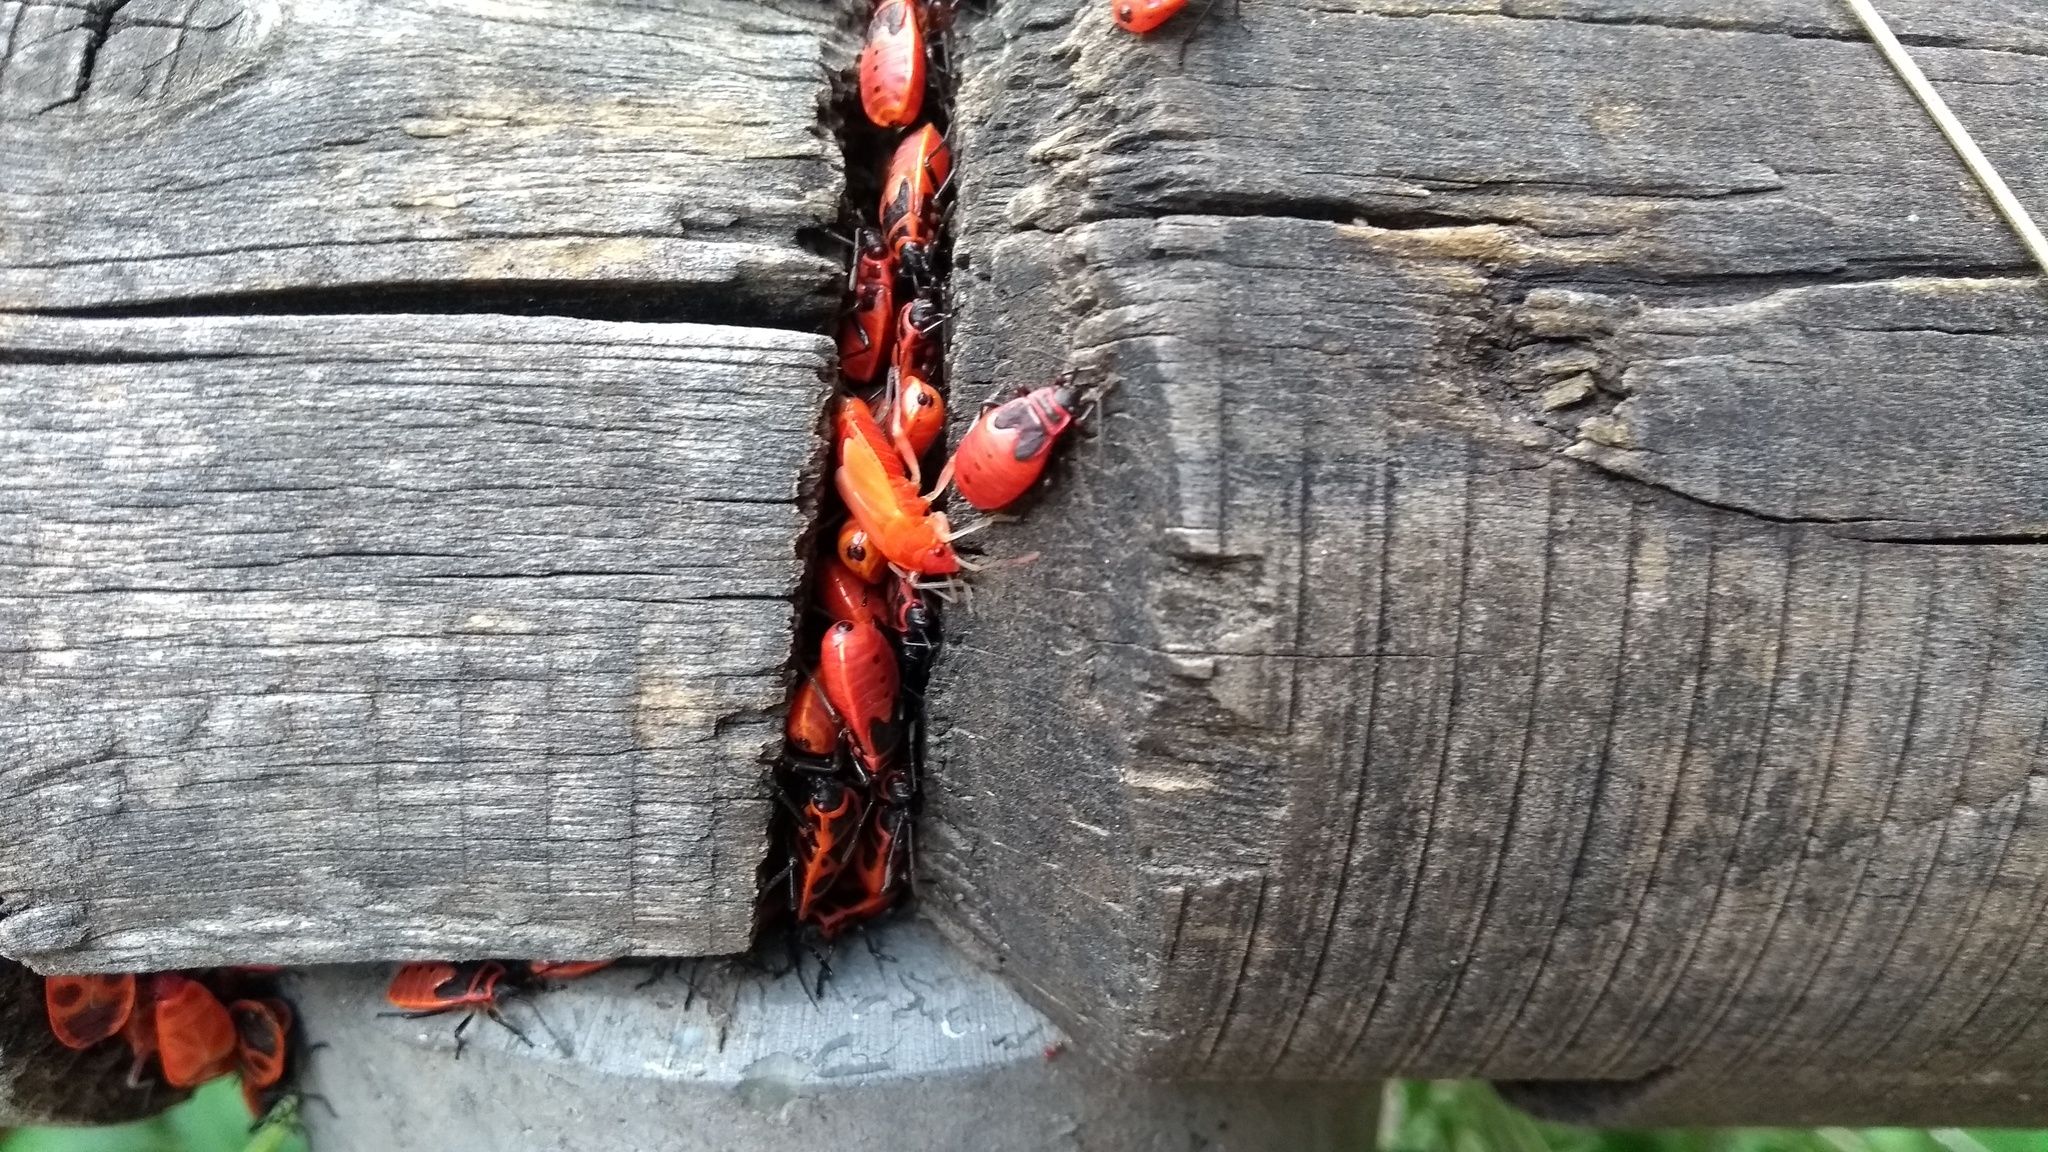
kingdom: Animalia
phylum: Arthropoda
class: Insecta
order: Hemiptera
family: Pyrrhocoridae
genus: Pyrrhocoris
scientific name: Pyrrhocoris apterus
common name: Firebug
